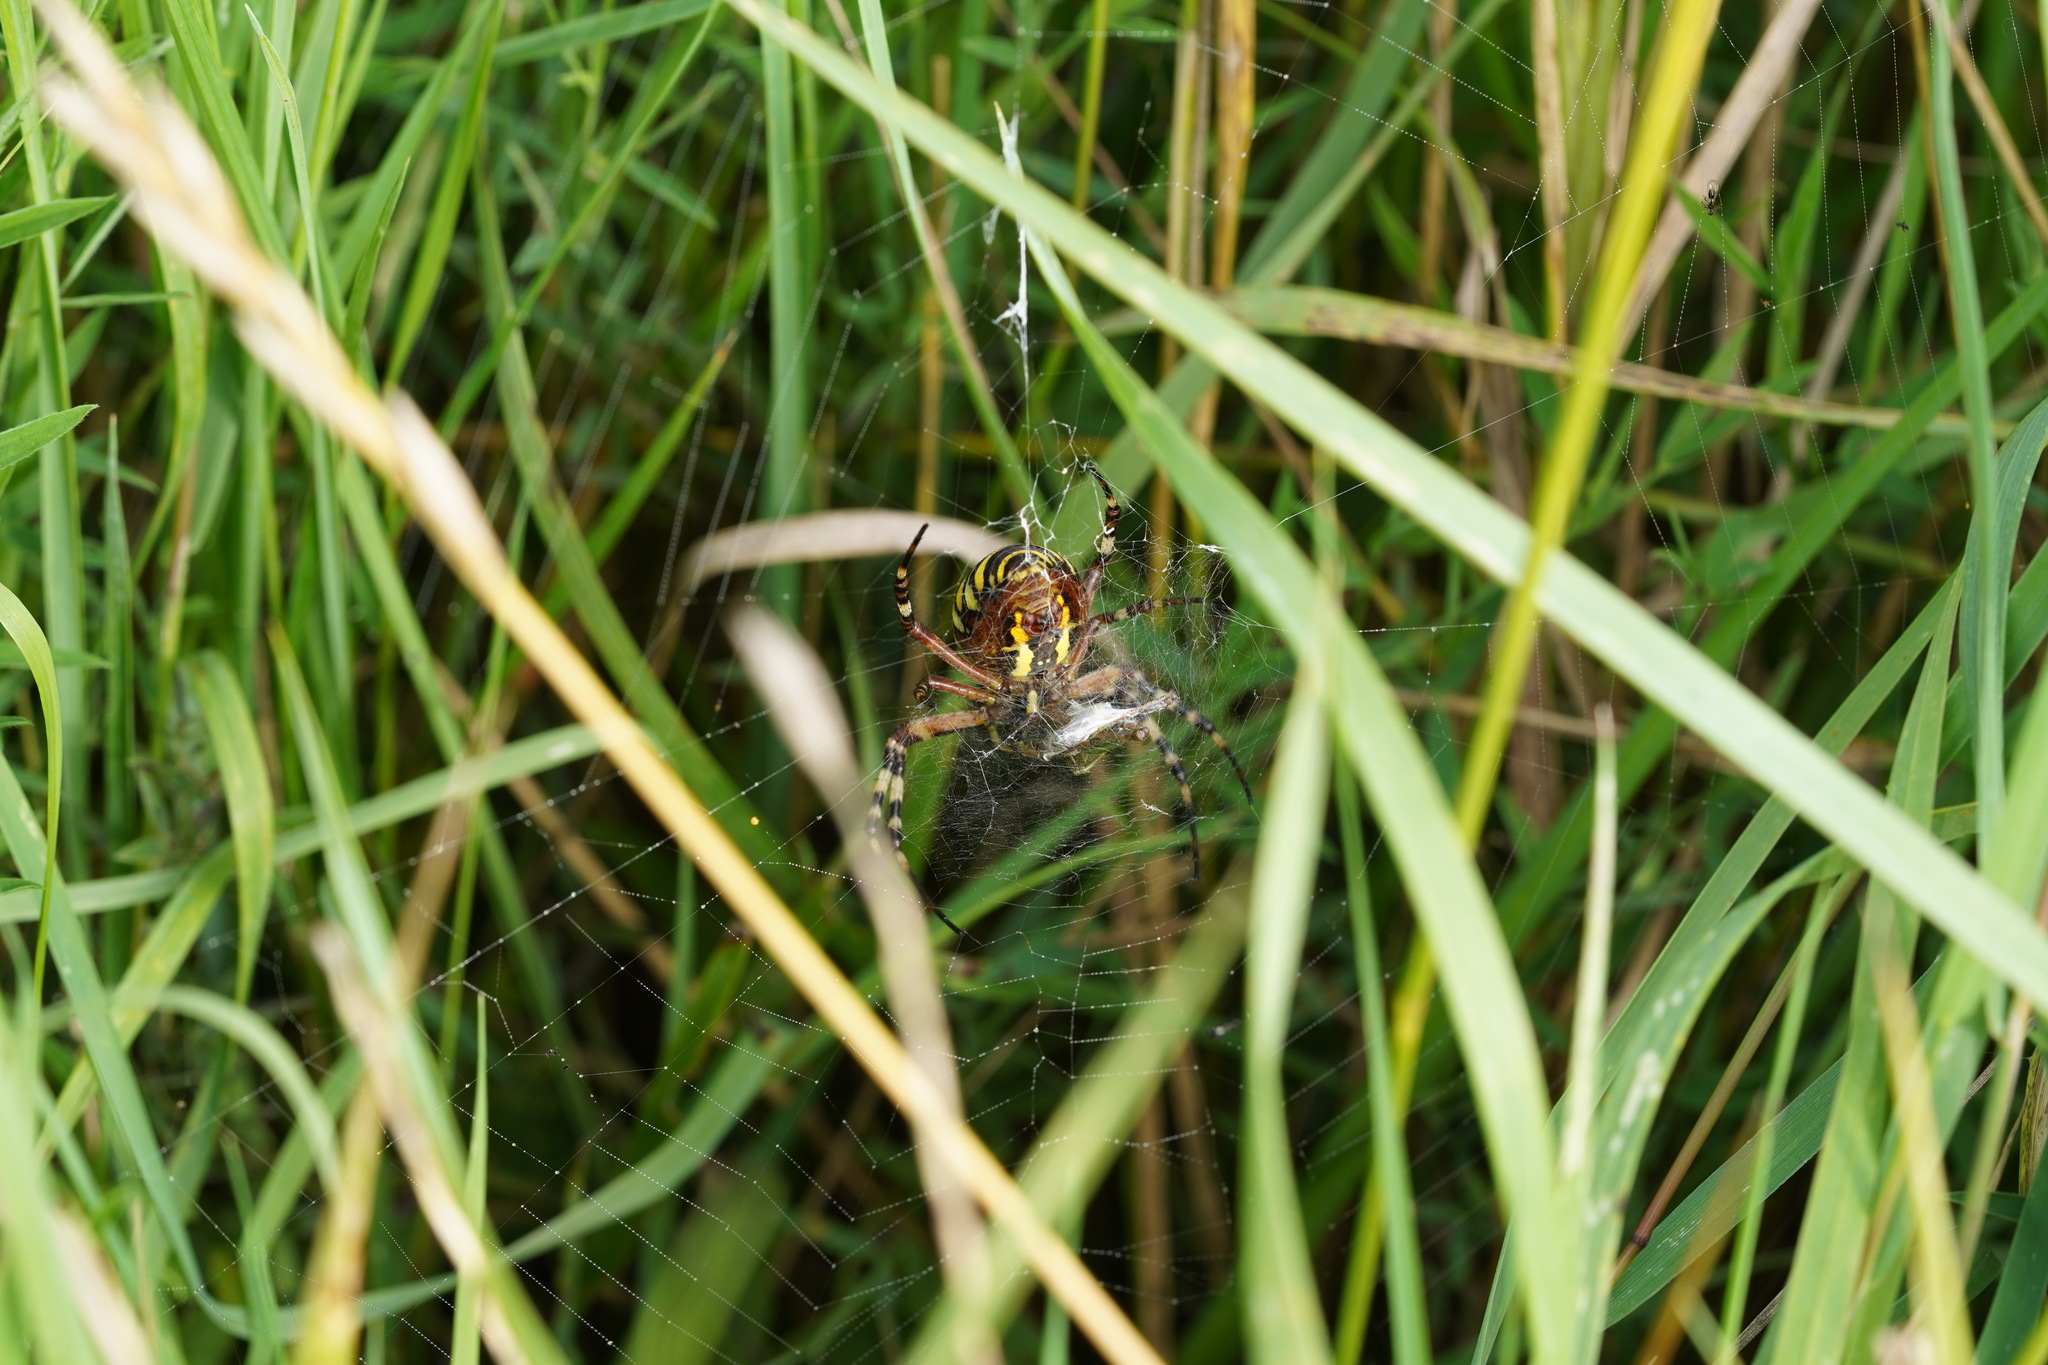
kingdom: Animalia
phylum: Arthropoda
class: Arachnida
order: Araneae
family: Araneidae
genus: Argiope
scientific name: Argiope bruennichi
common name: Wasp spider
